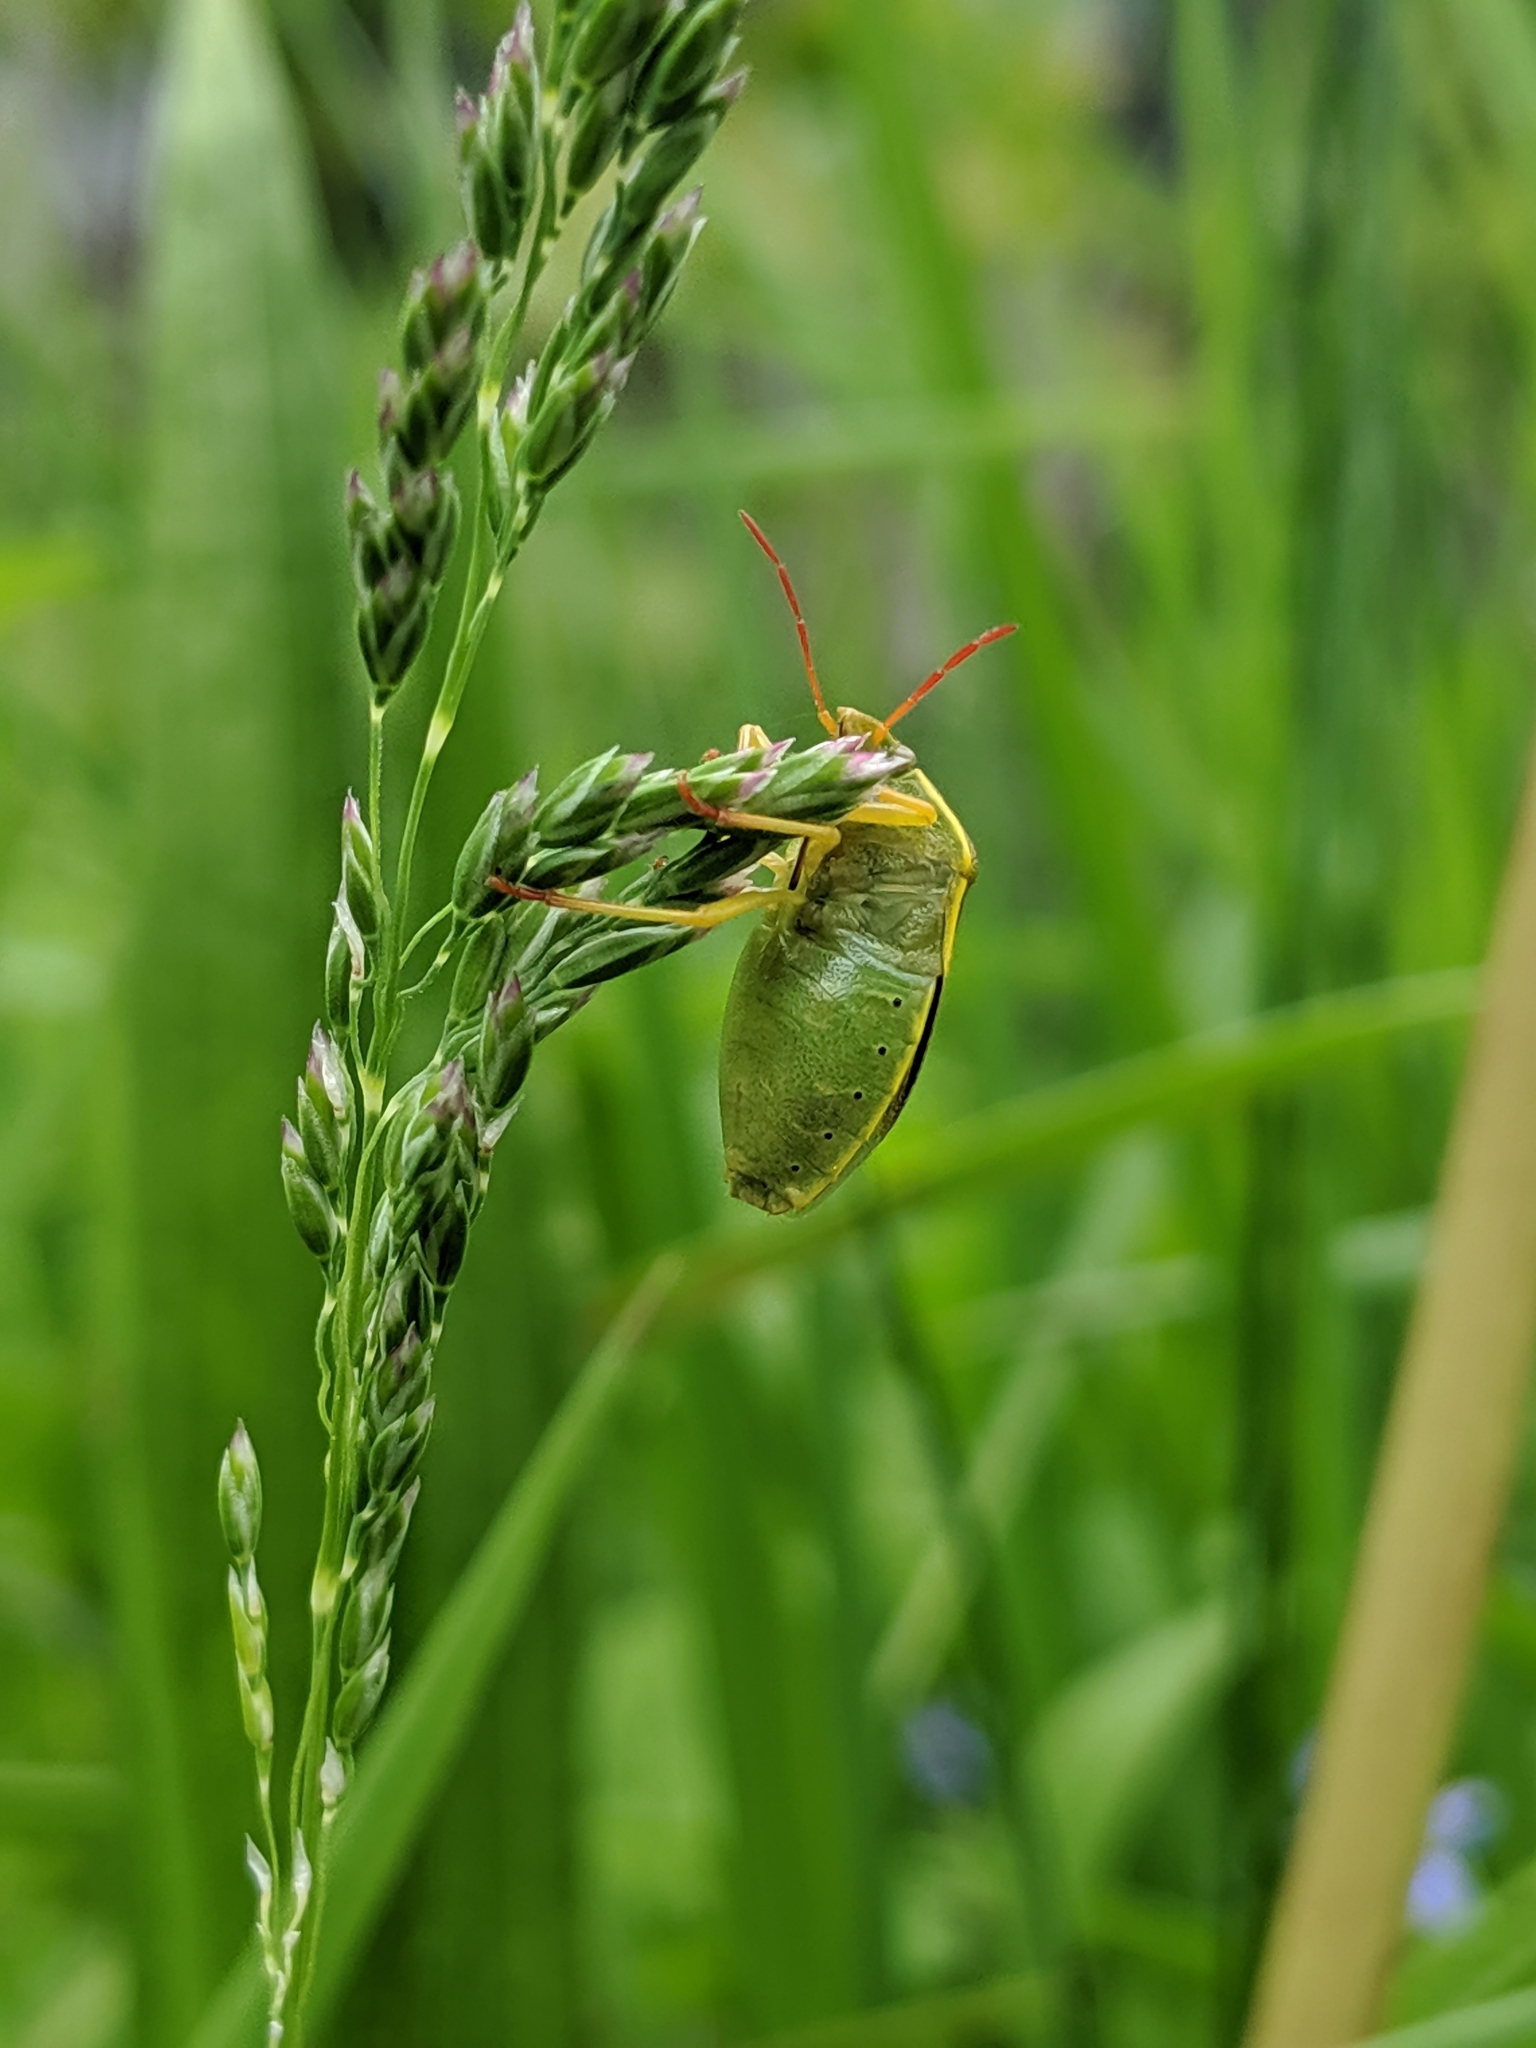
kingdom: Animalia
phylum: Arthropoda
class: Insecta
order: Hemiptera
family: Pentatomidae
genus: Piezodorus
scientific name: Piezodorus lituratus
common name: Stink bug
